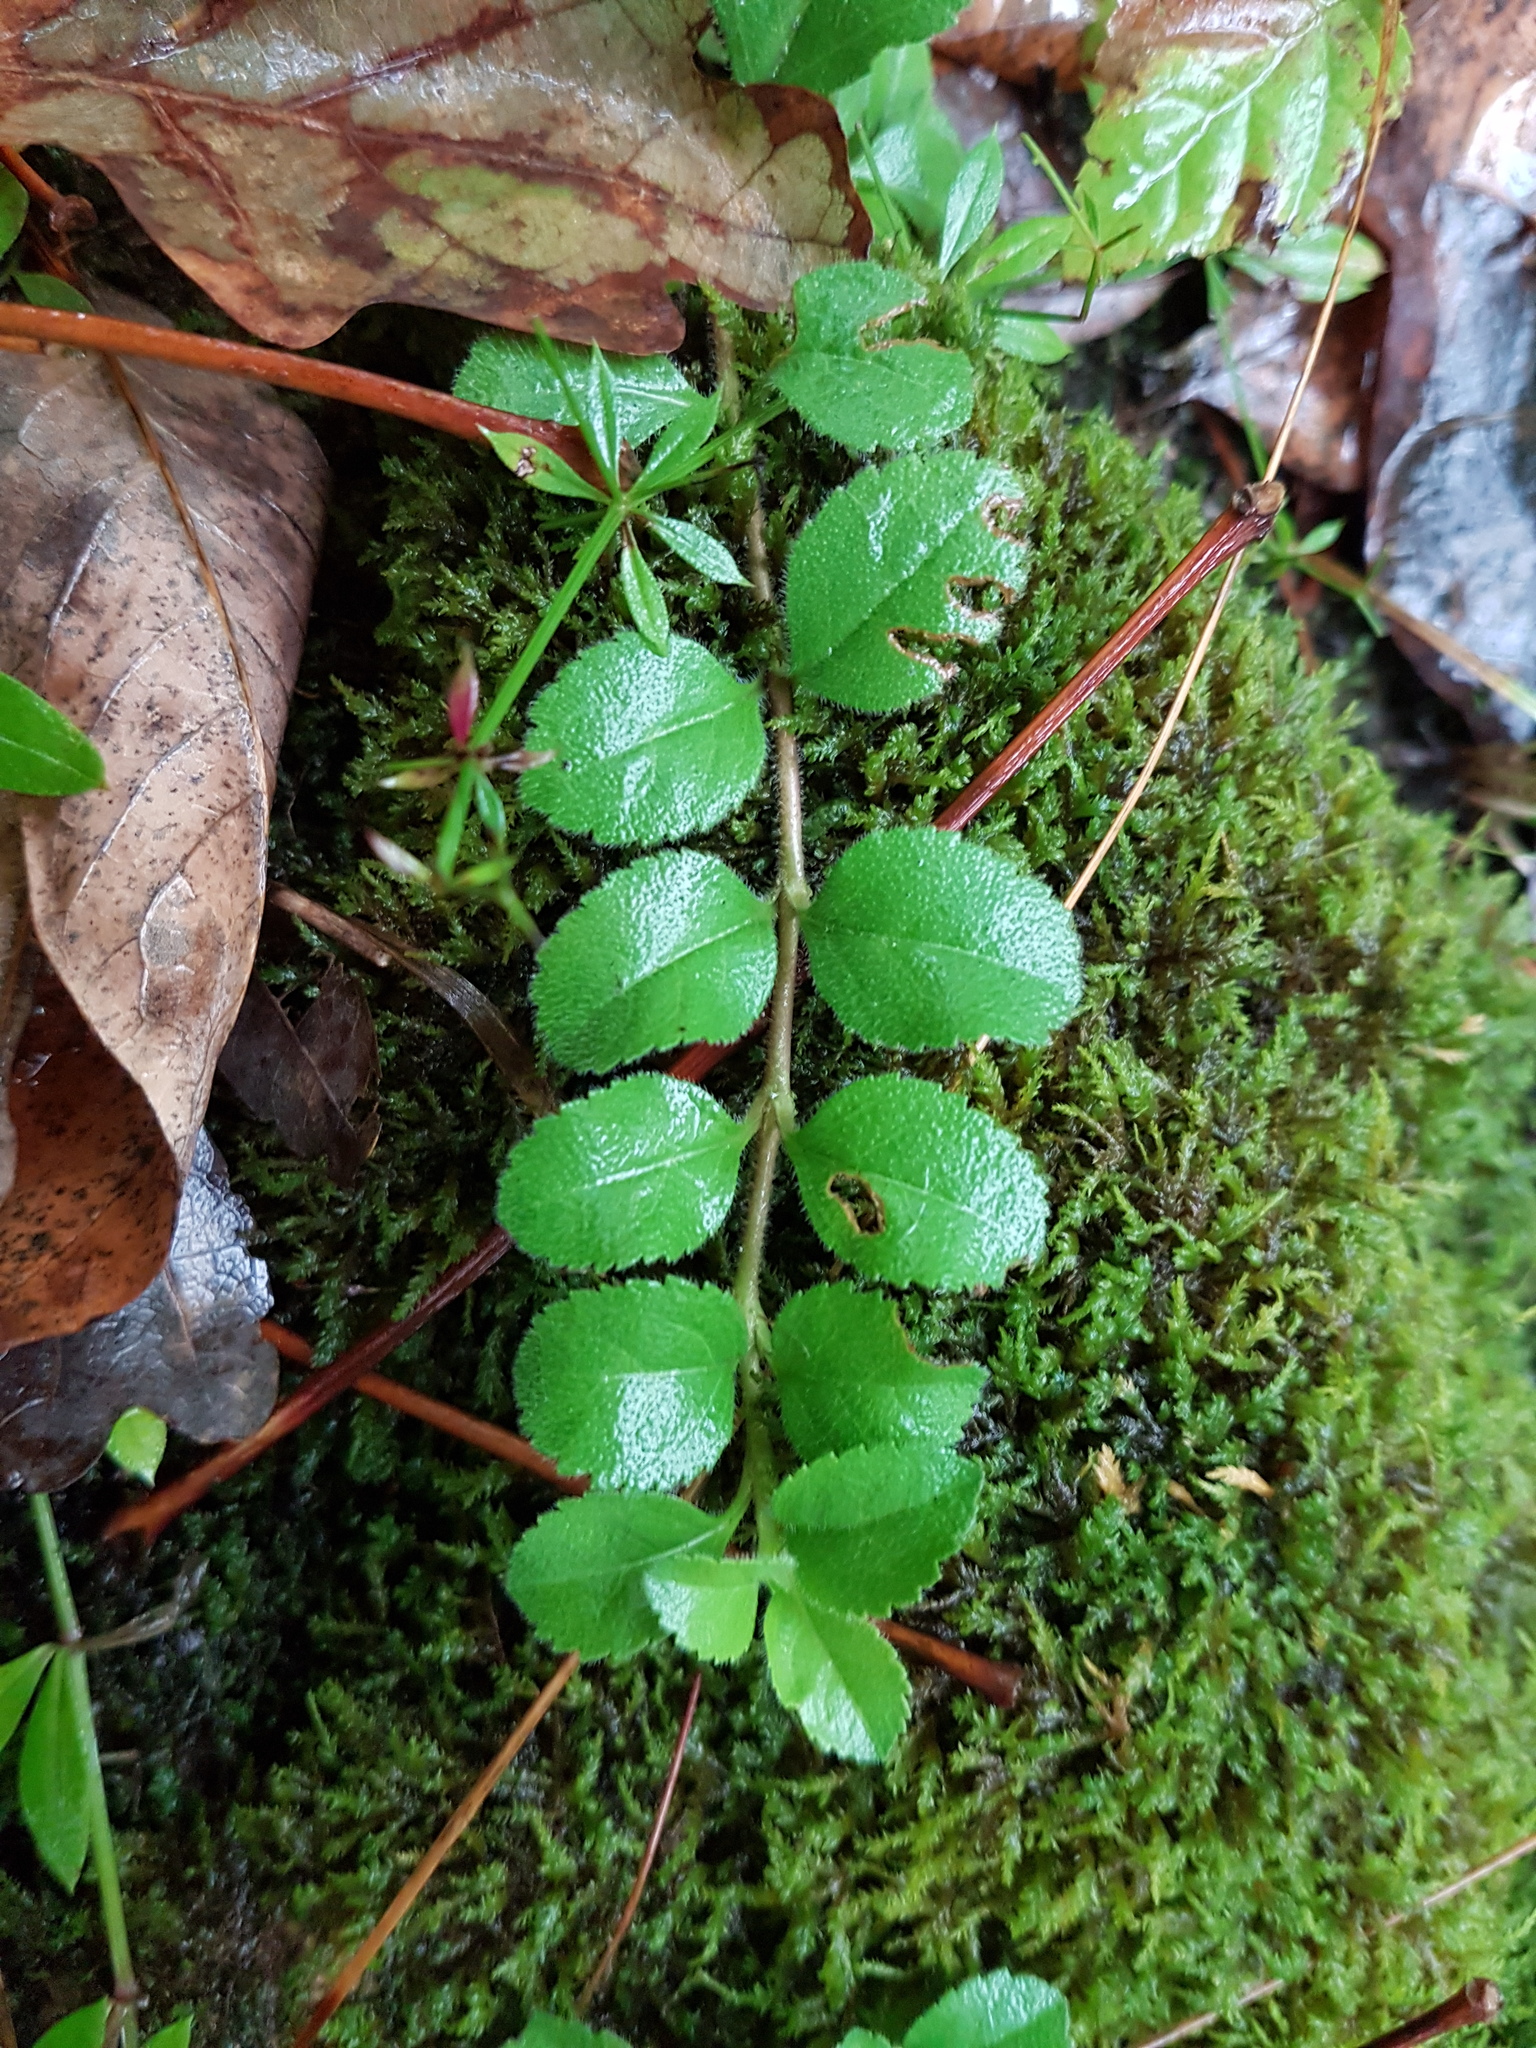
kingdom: Plantae
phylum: Tracheophyta
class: Magnoliopsida
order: Lamiales
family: Plantaginaceae
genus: Veronica
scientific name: Veronica officinalis
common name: Common speedwell
